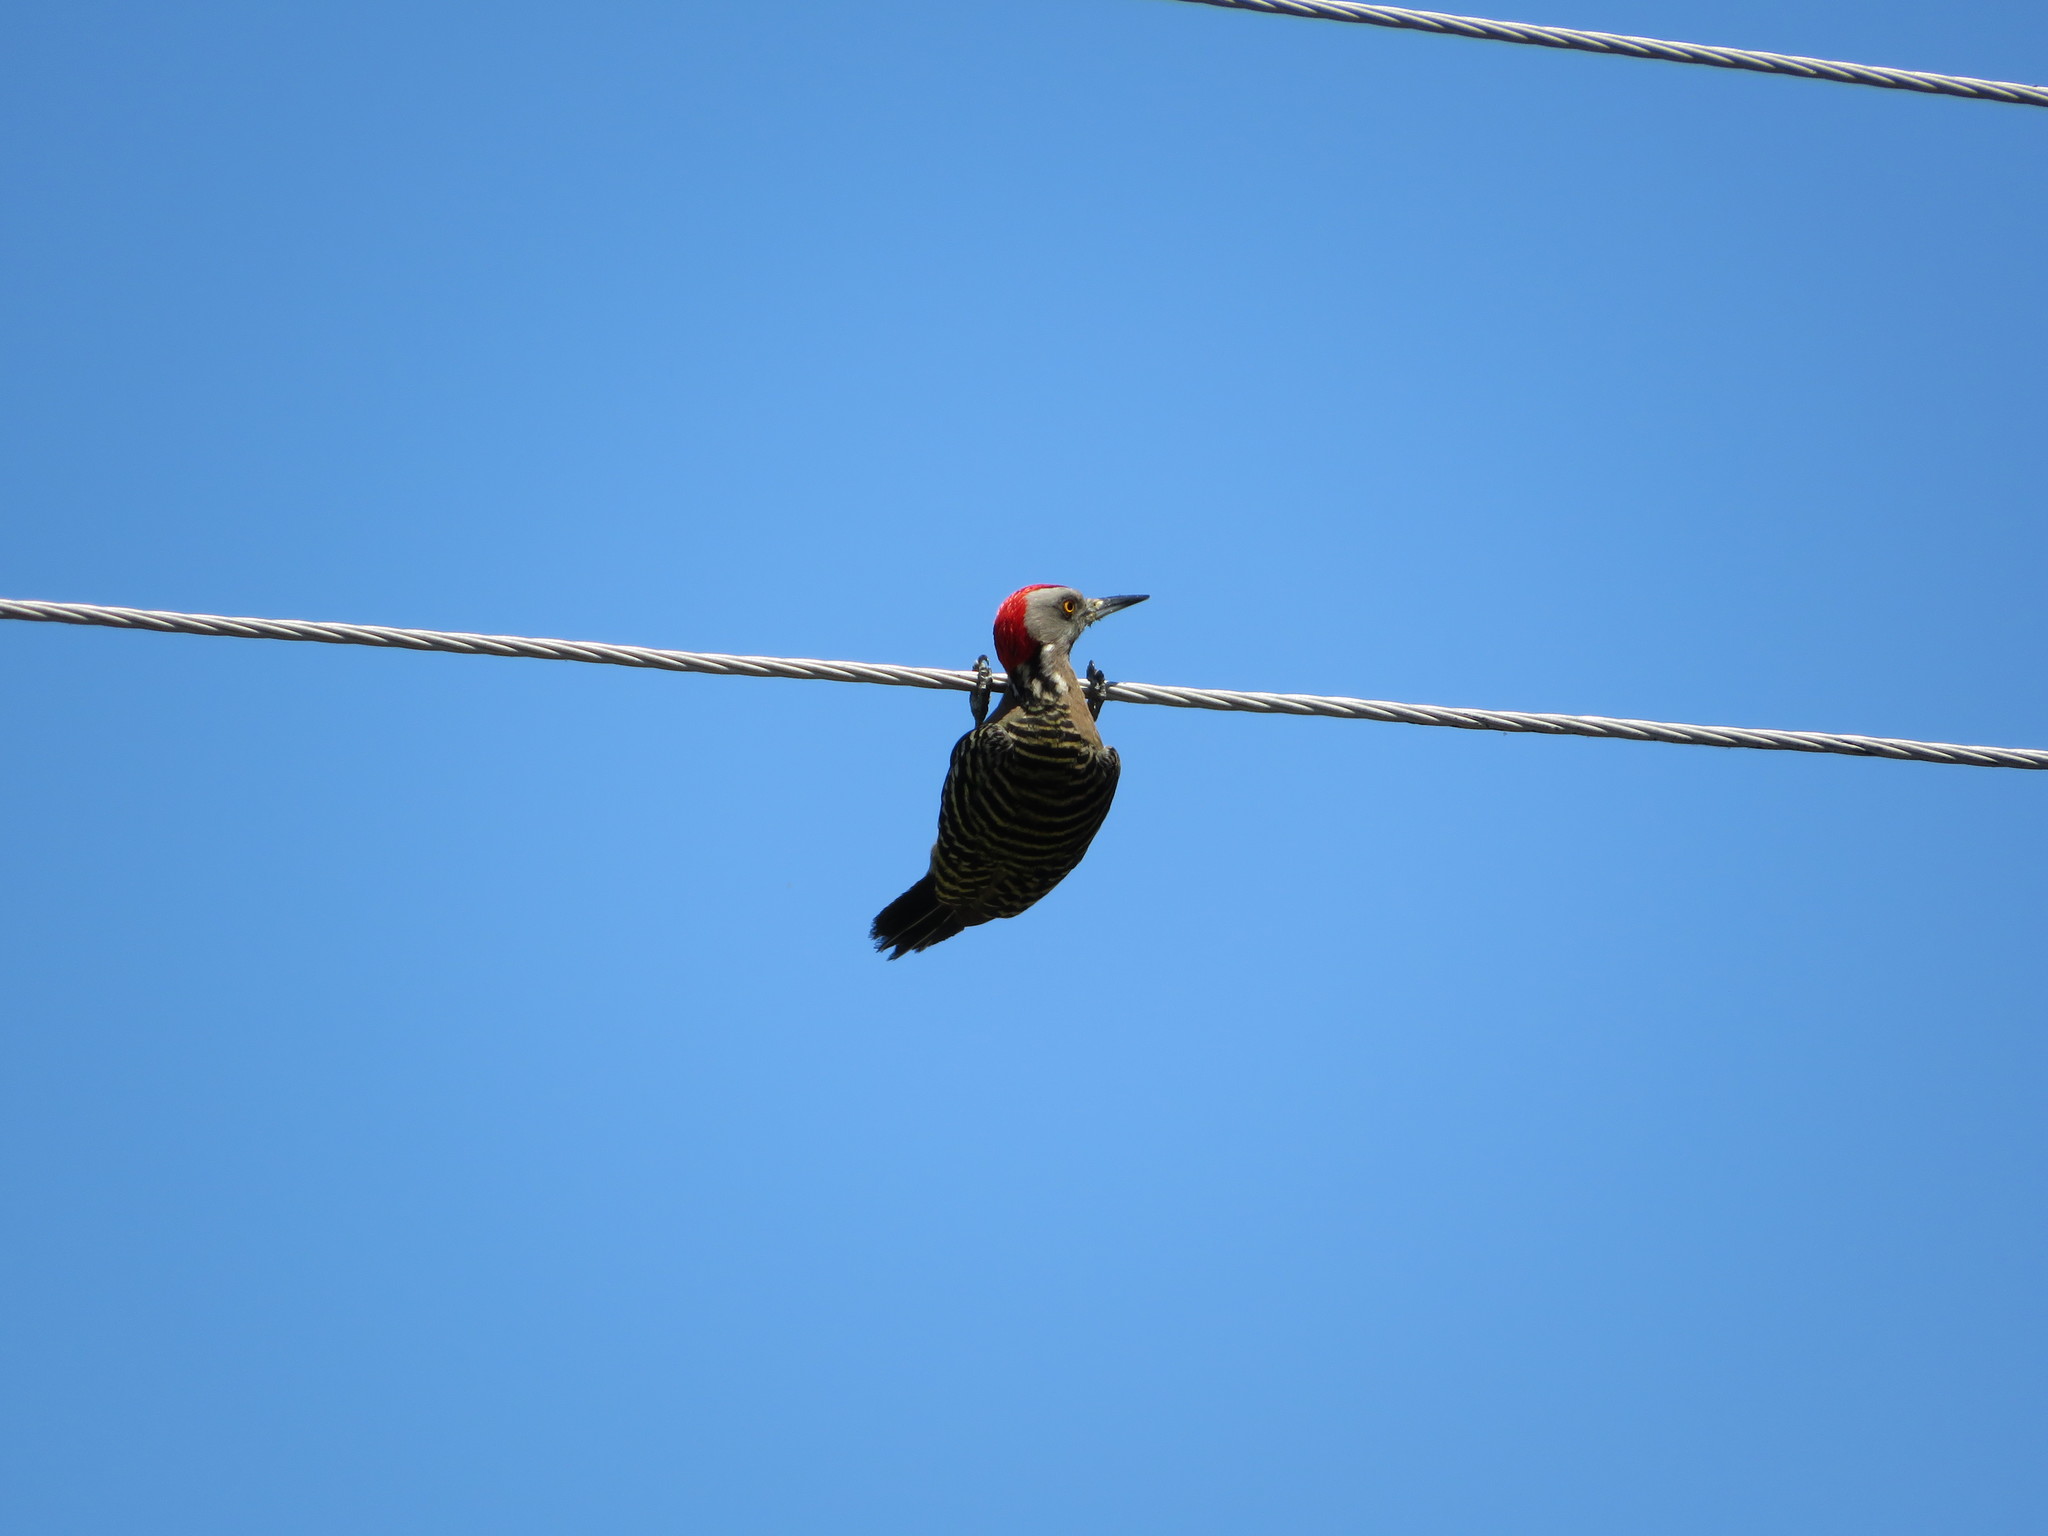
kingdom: Animalia
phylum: Chordata
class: Aves
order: Piciformes
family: Picidae
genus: Melanerpes
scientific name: Melanerpes striatus
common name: Hispaniolan woodpecker
